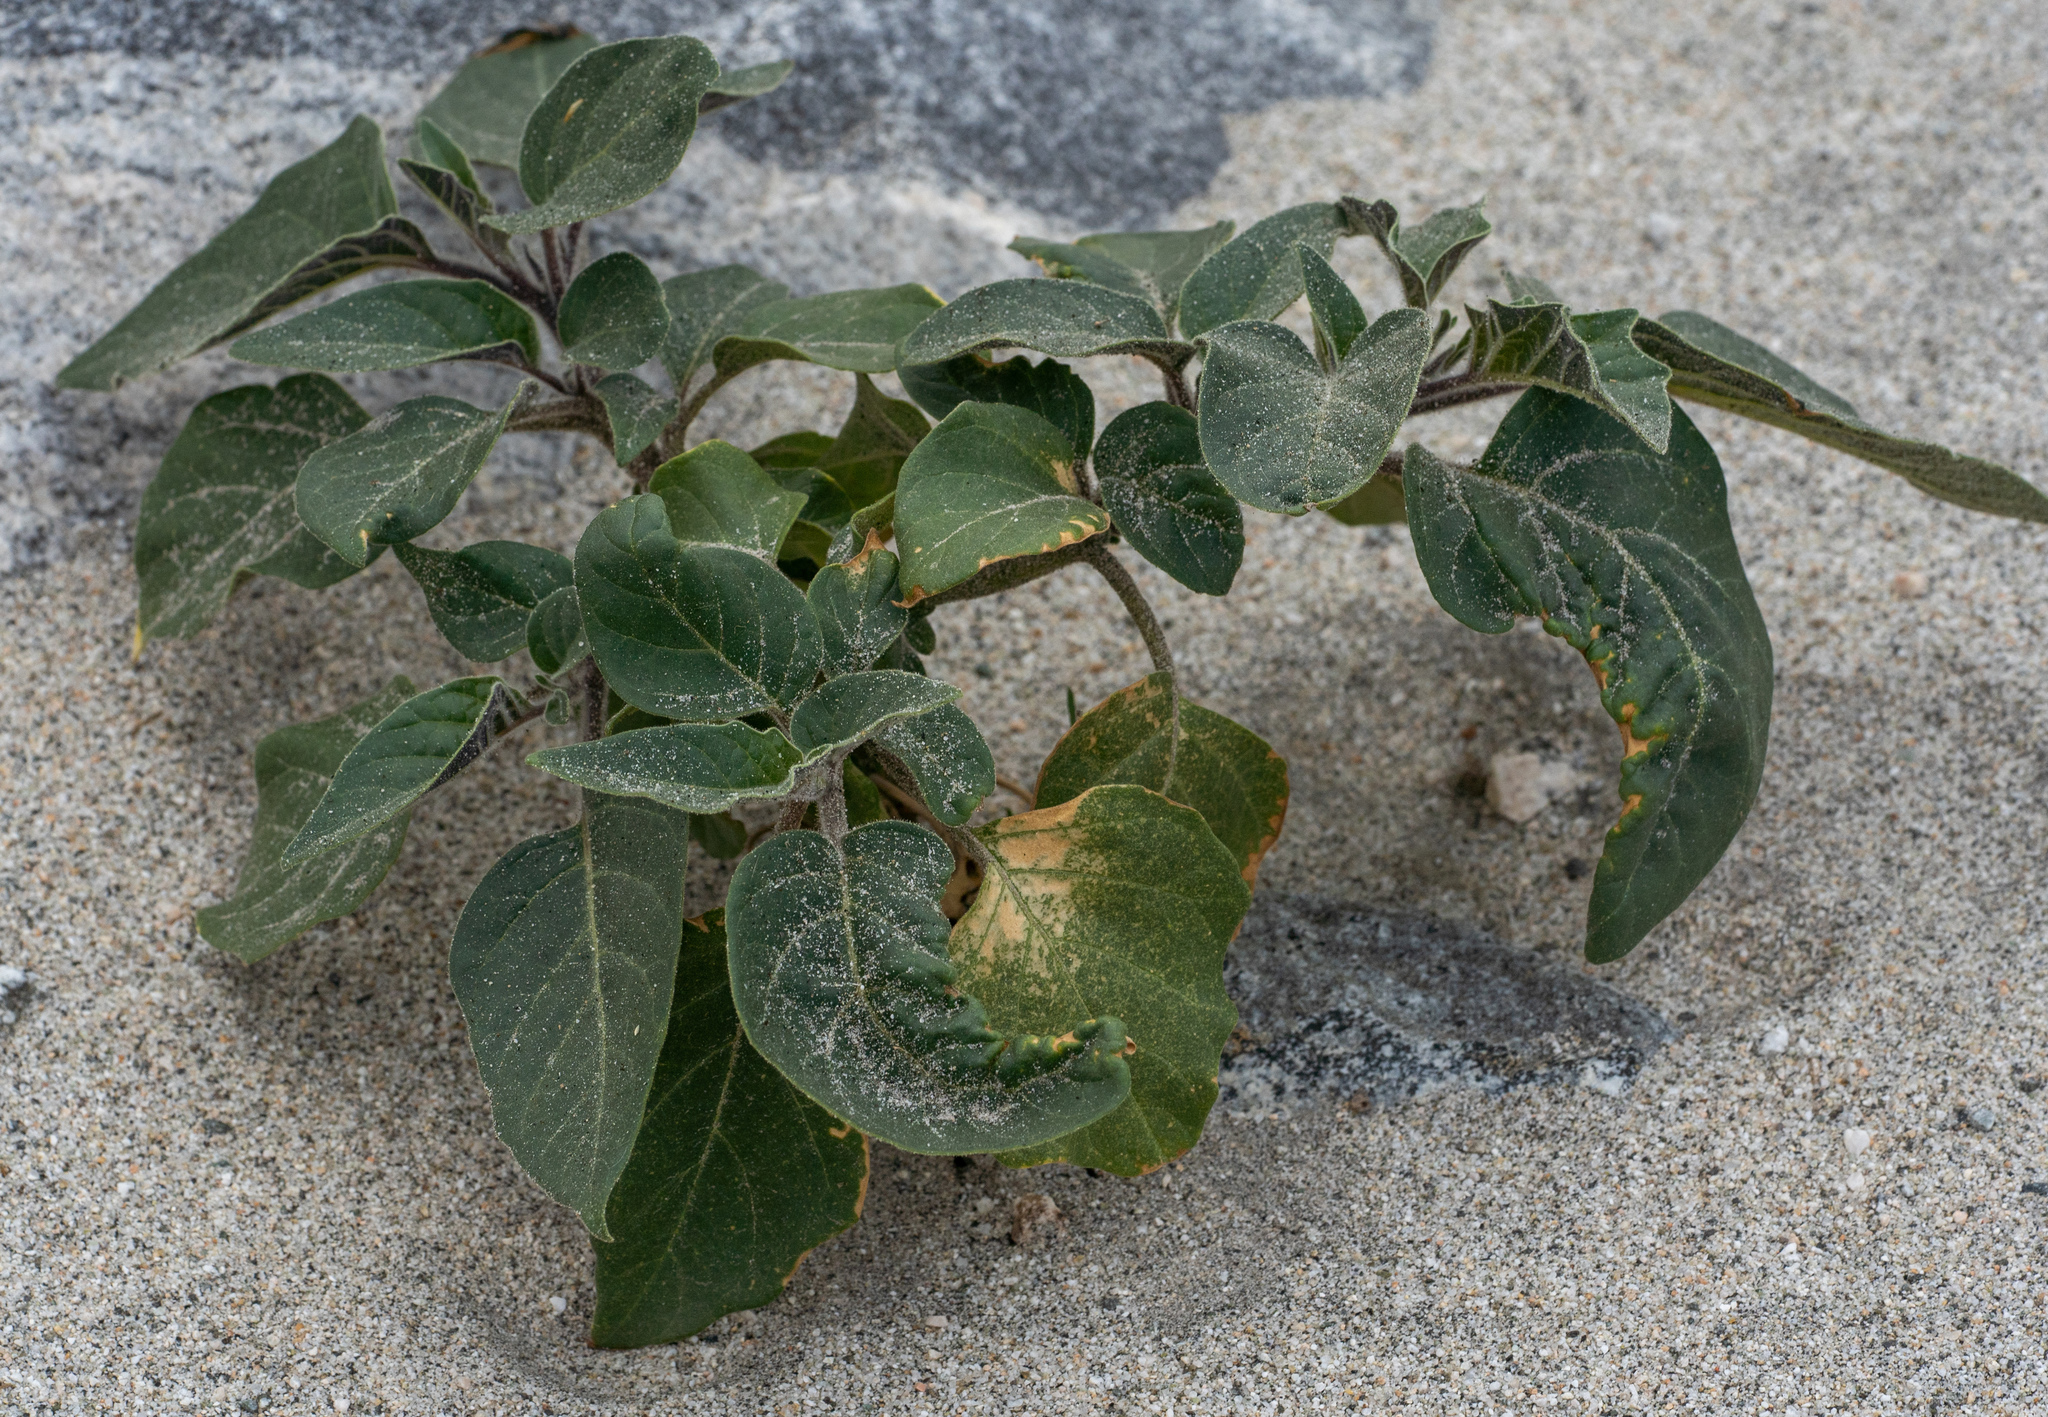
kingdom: Plantae
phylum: Tracheophyta
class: Magnoliopsida
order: Solanales
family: Solanaceae
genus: Datura
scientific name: Datura wrightii
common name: Sacred thorn-apple
